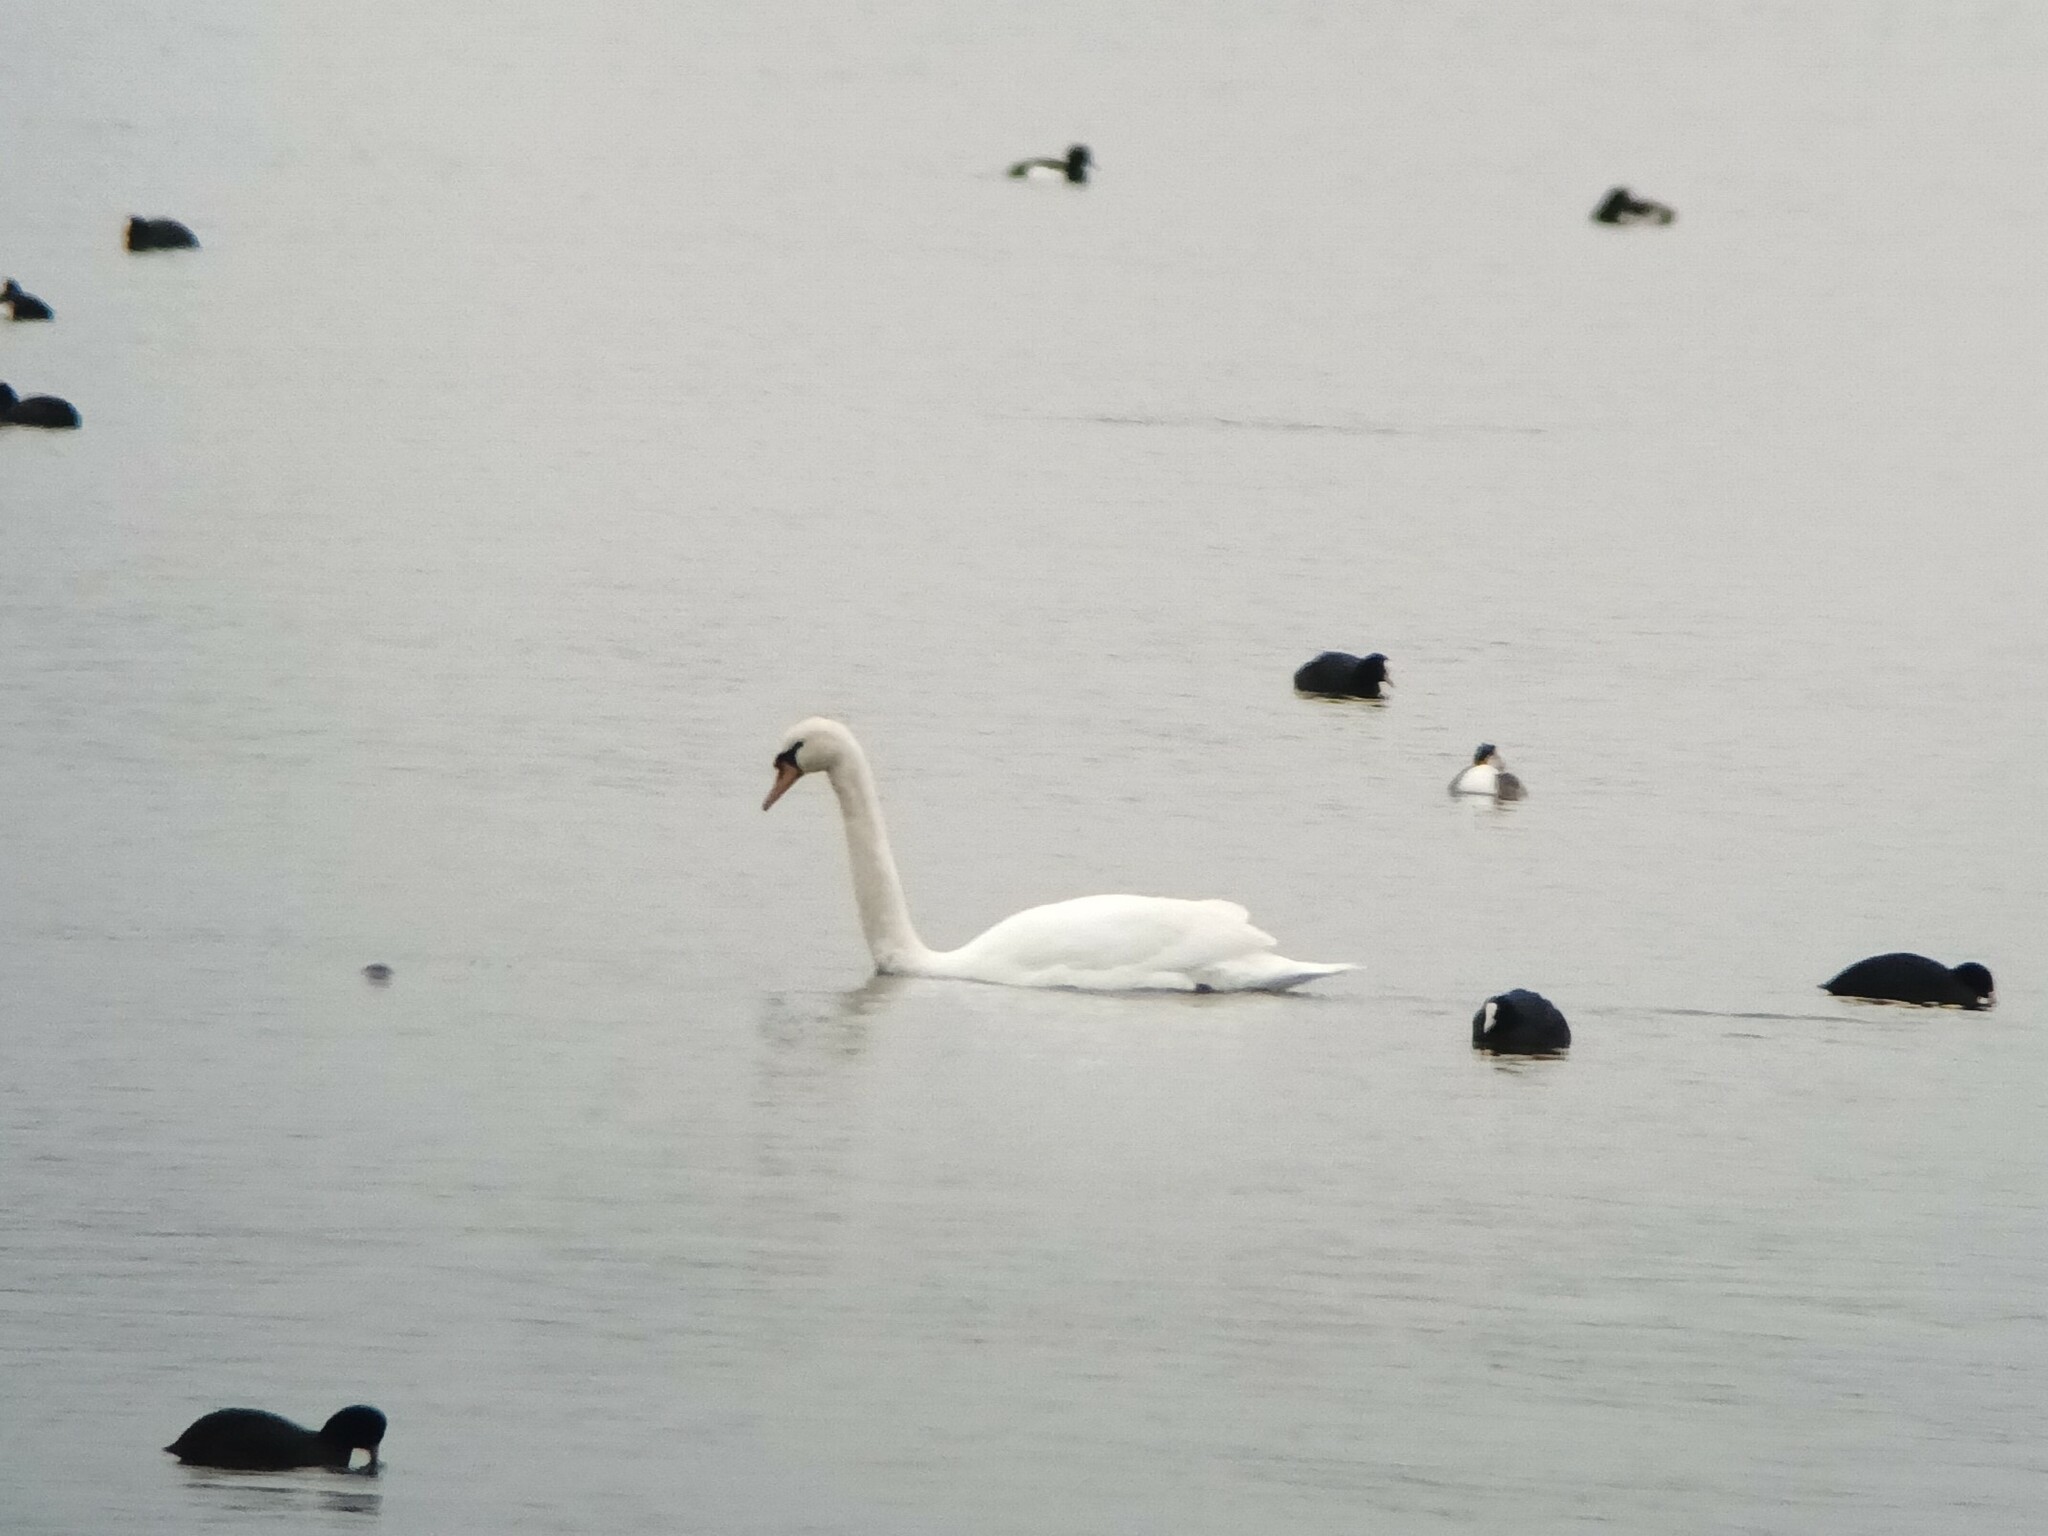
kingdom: Animalia
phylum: Chordata
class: Aves
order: Anseriformes
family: Anatidae
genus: Cygnus
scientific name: Cygnus olor
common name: Mute swan
